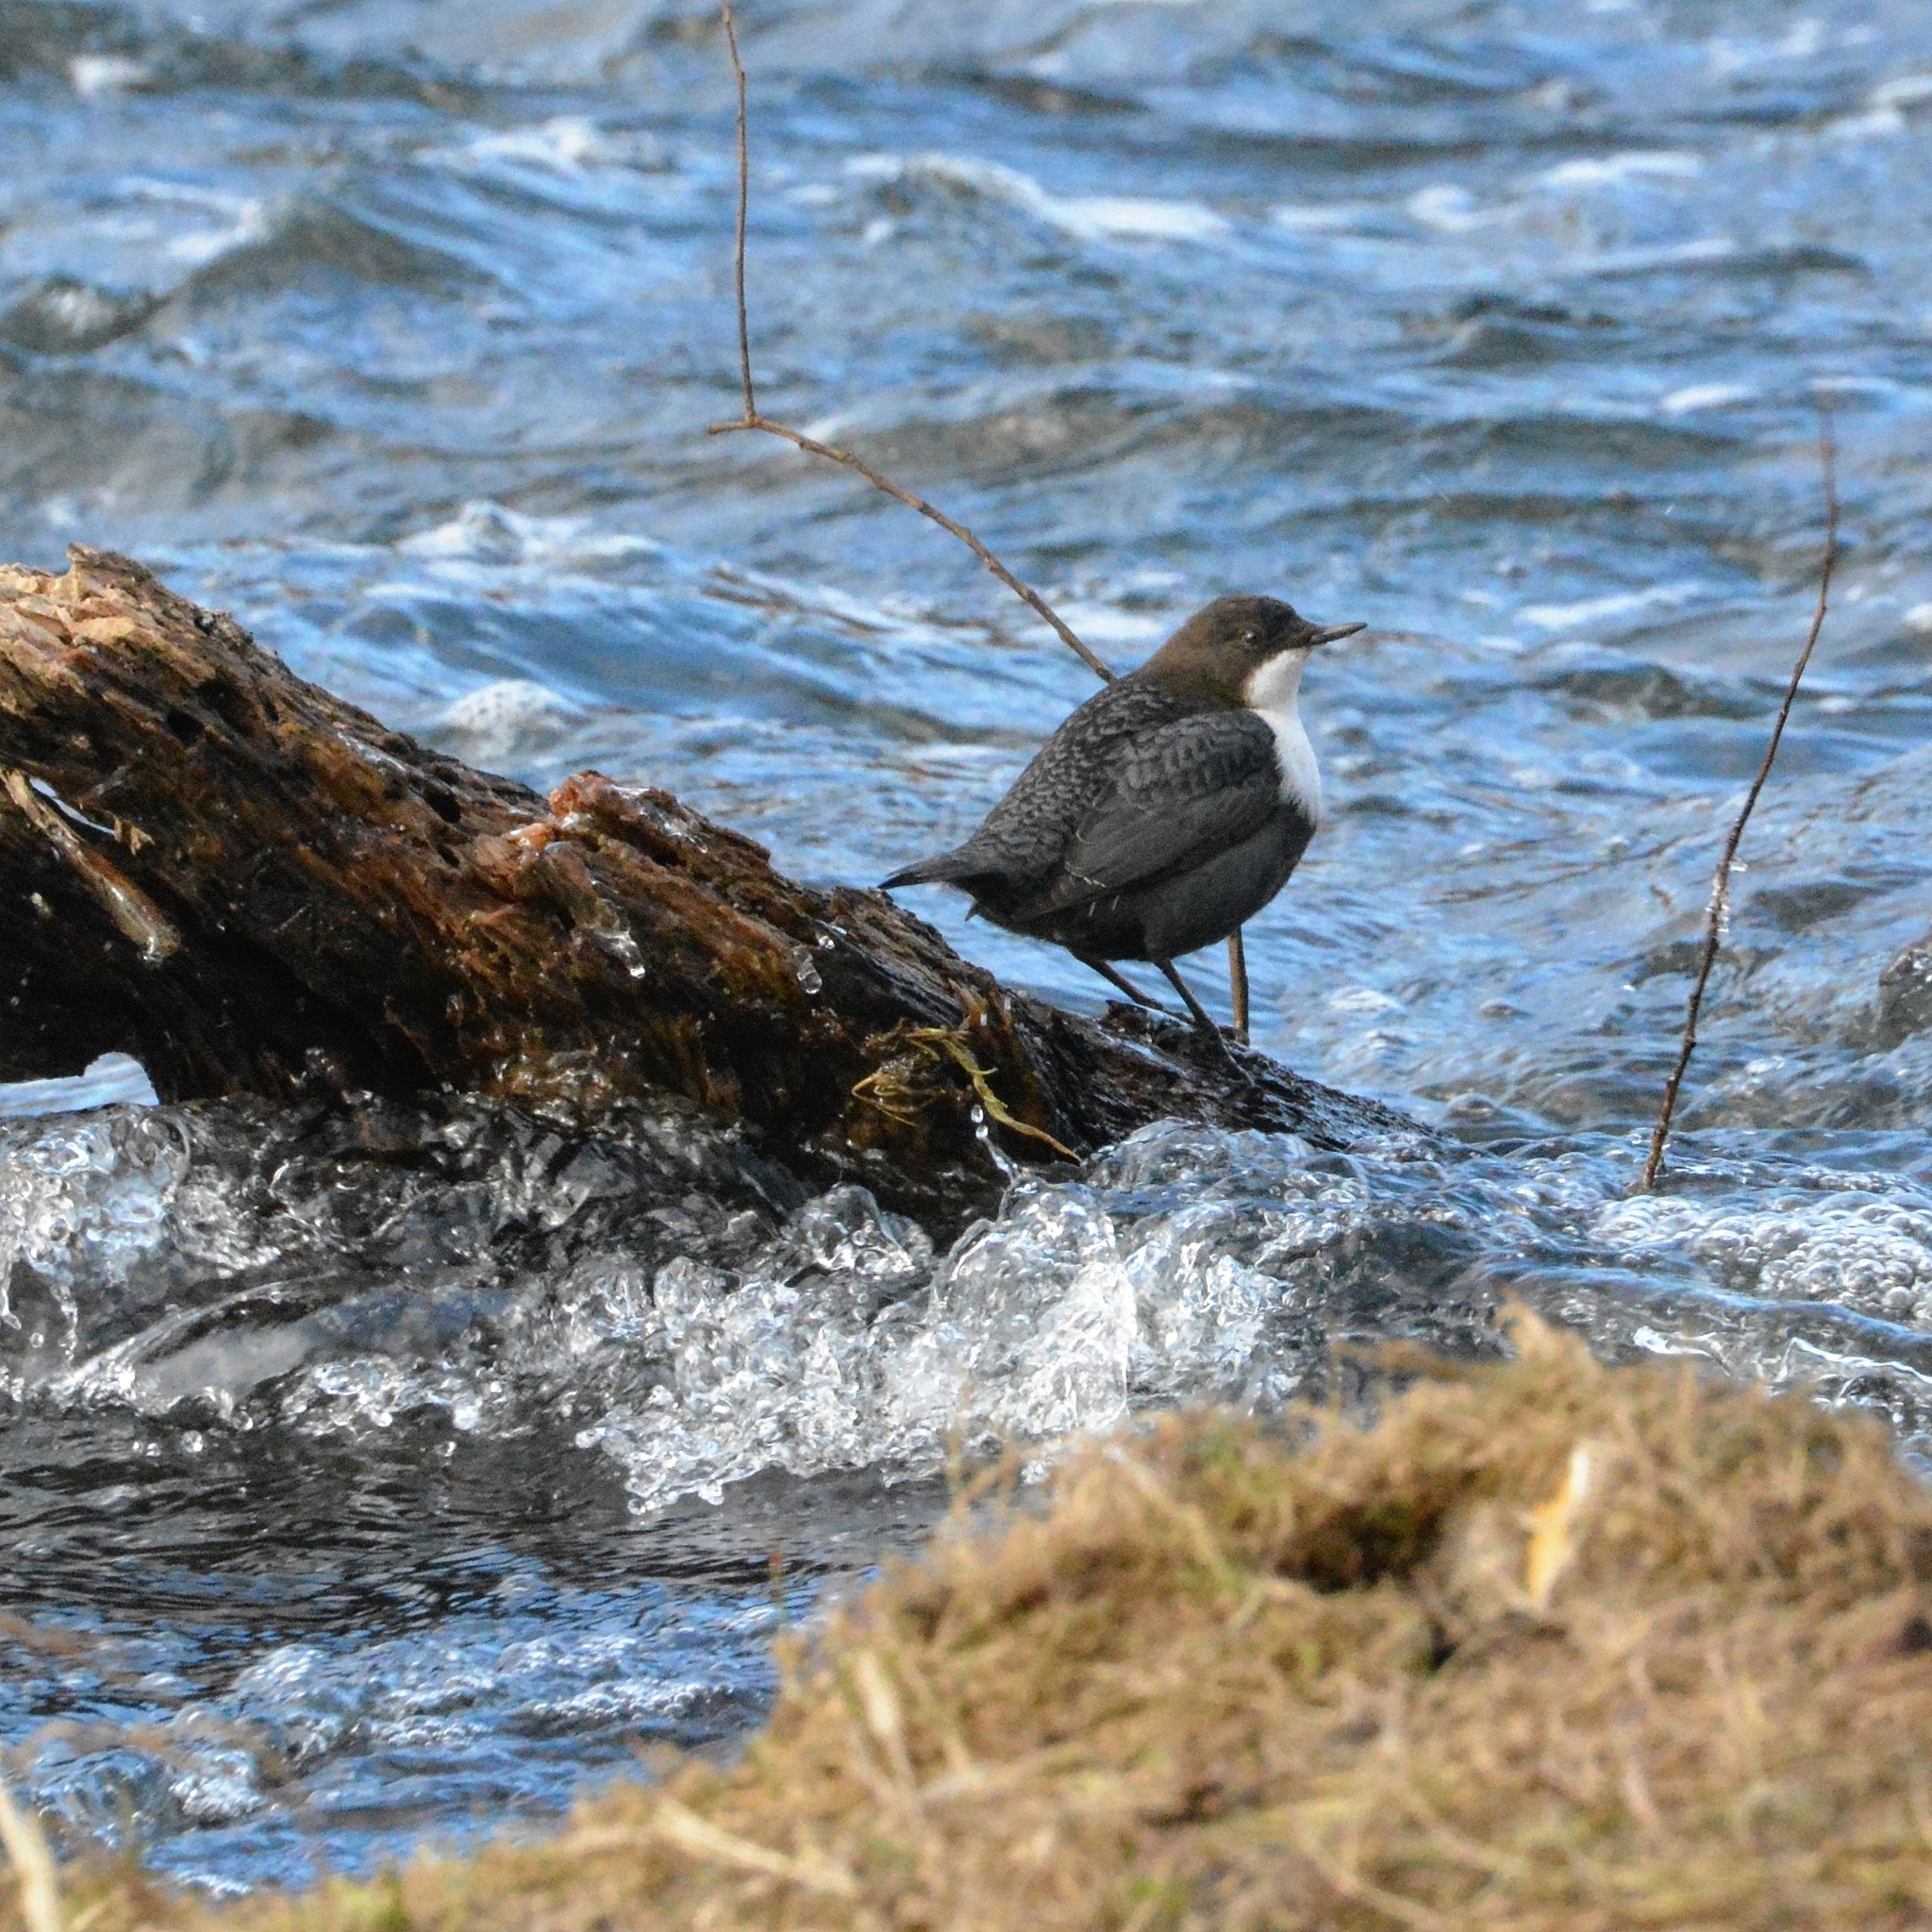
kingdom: Animalia
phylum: Chordata
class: Aves
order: Passeriformes
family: Cinclidae
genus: Cinclus
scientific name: Cinclus cinclus
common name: White-throated dipper
